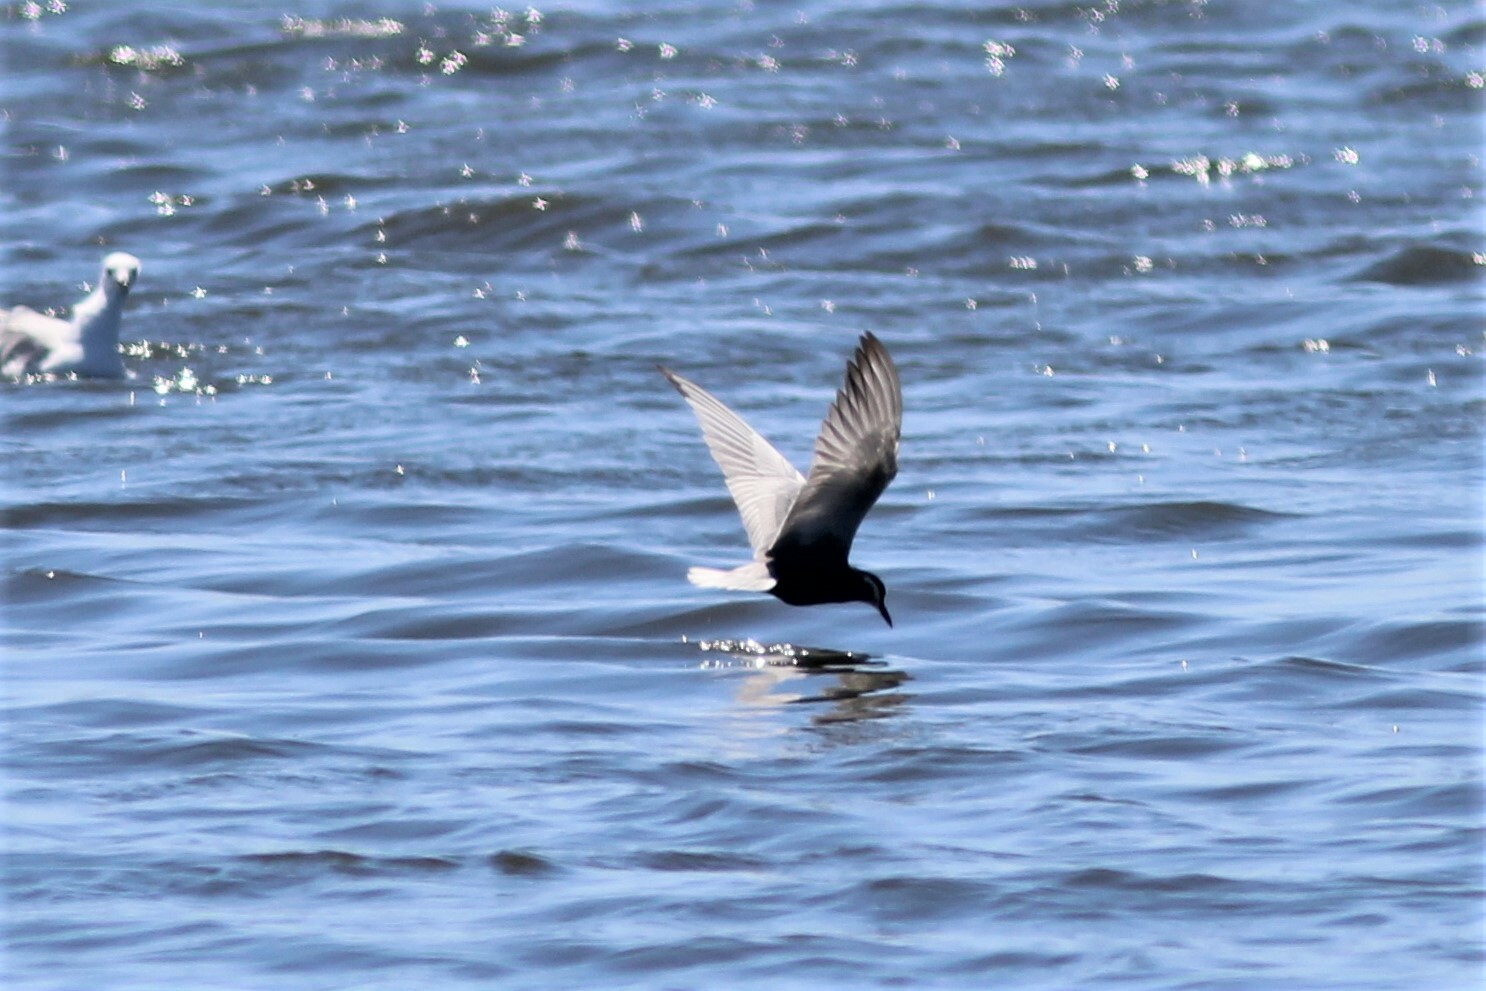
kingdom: Animalia
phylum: Chordata
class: Aves
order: Charadriiformes
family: Laridae
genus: Chlidonias
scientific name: Chlidonias hybrida
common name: Whiskered tern
